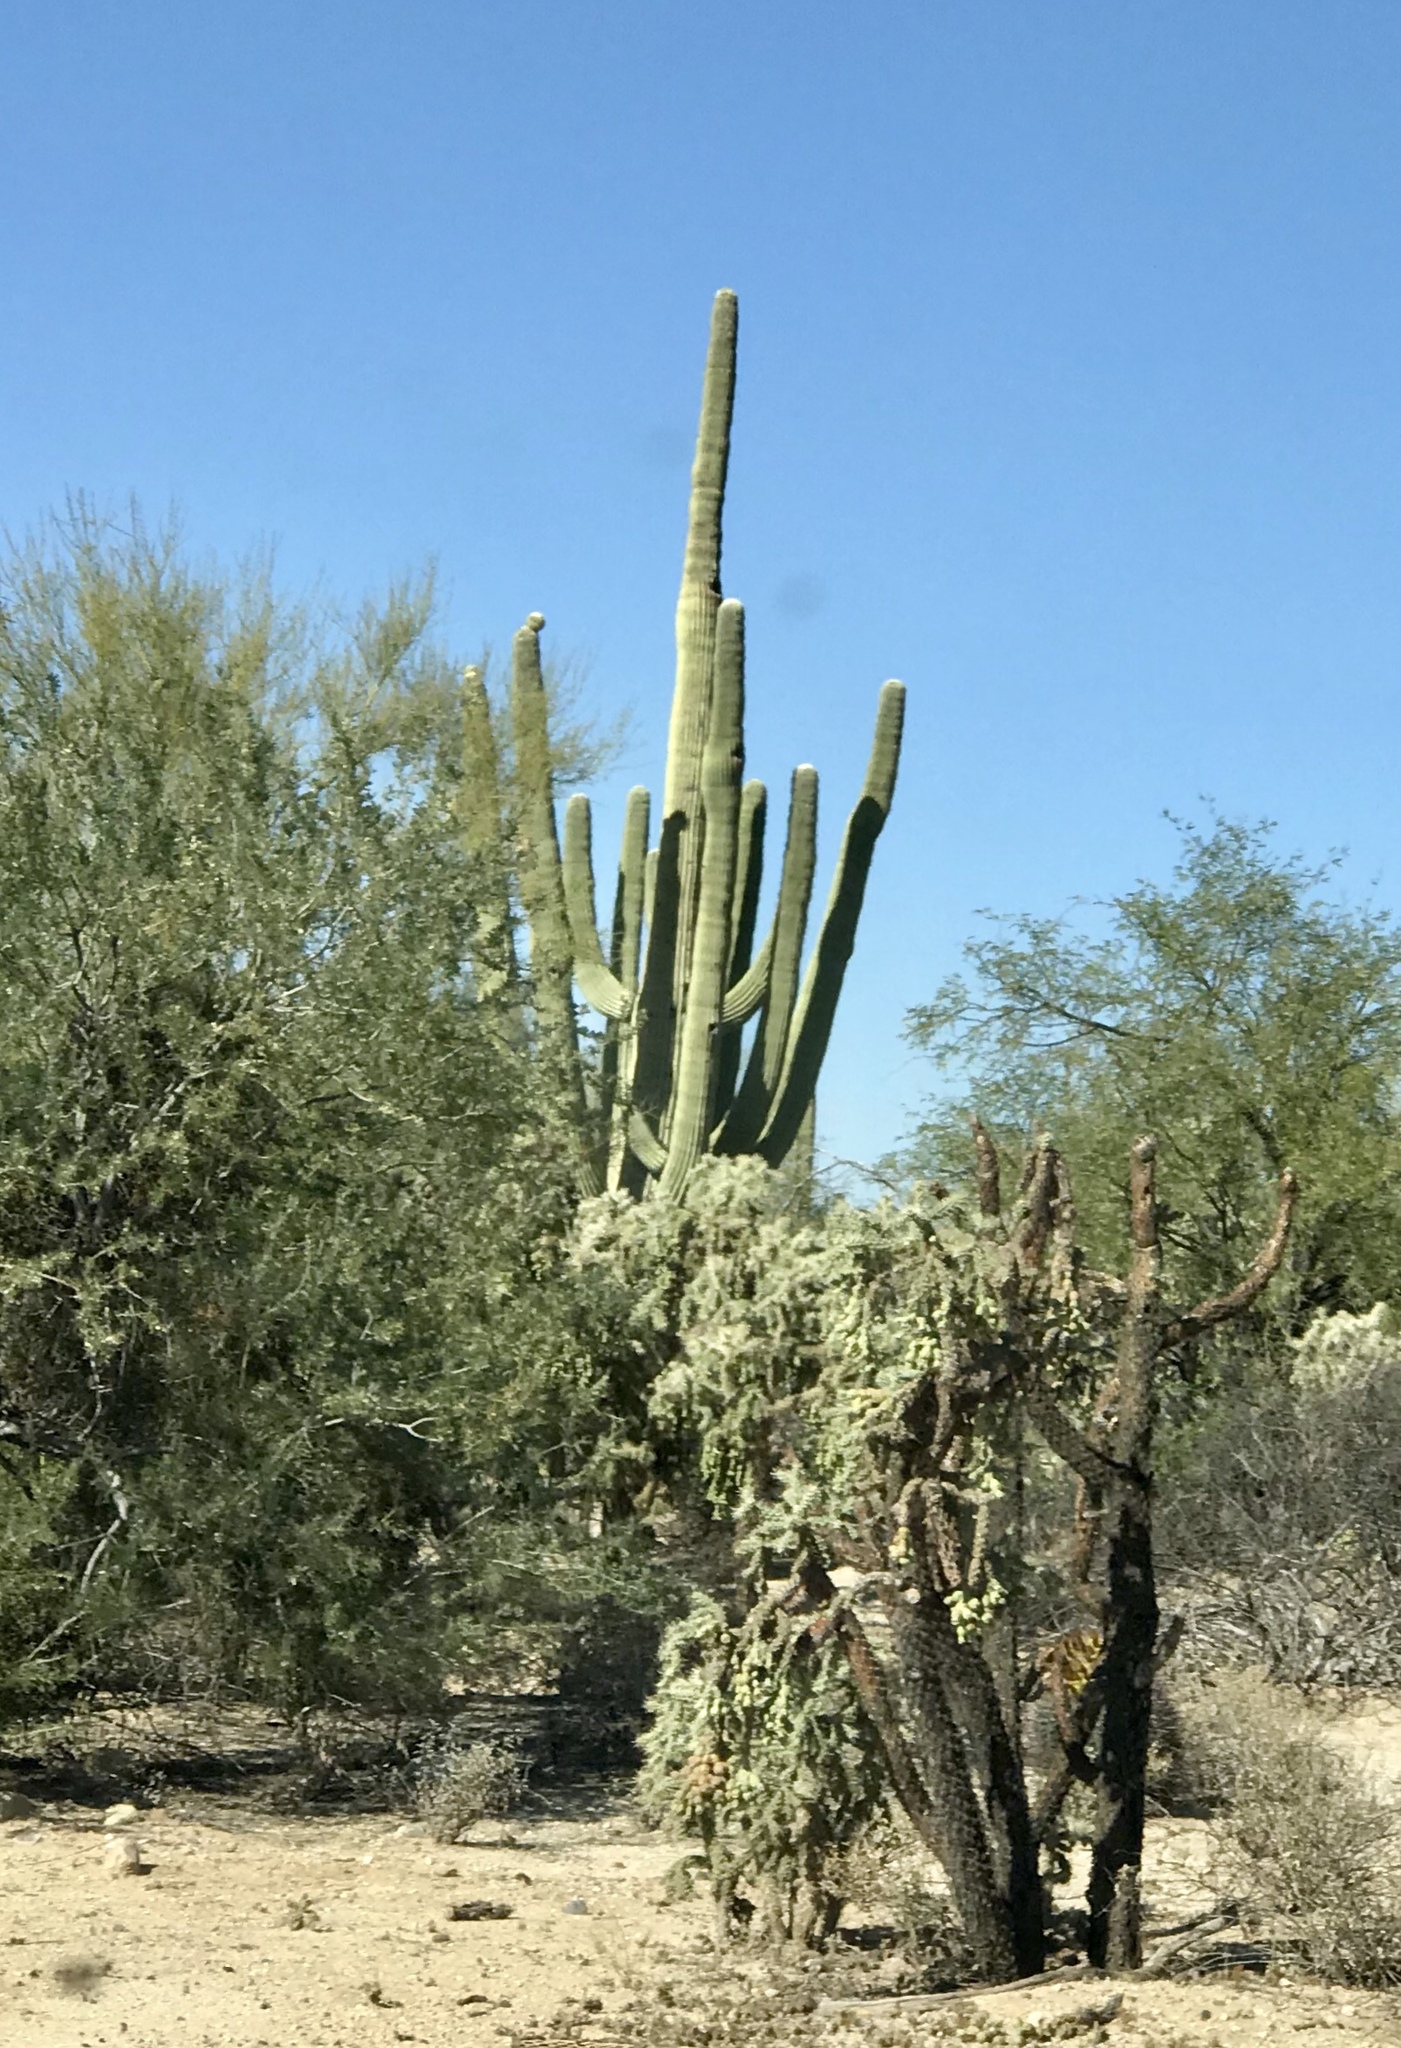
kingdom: Plantae
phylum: Tracheophyta
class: Magnoliopsida
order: Caryophyllales
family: Cactaceae
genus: Cylindropuntia
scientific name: Cylindropuntia fulgida
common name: Jumping cholla
